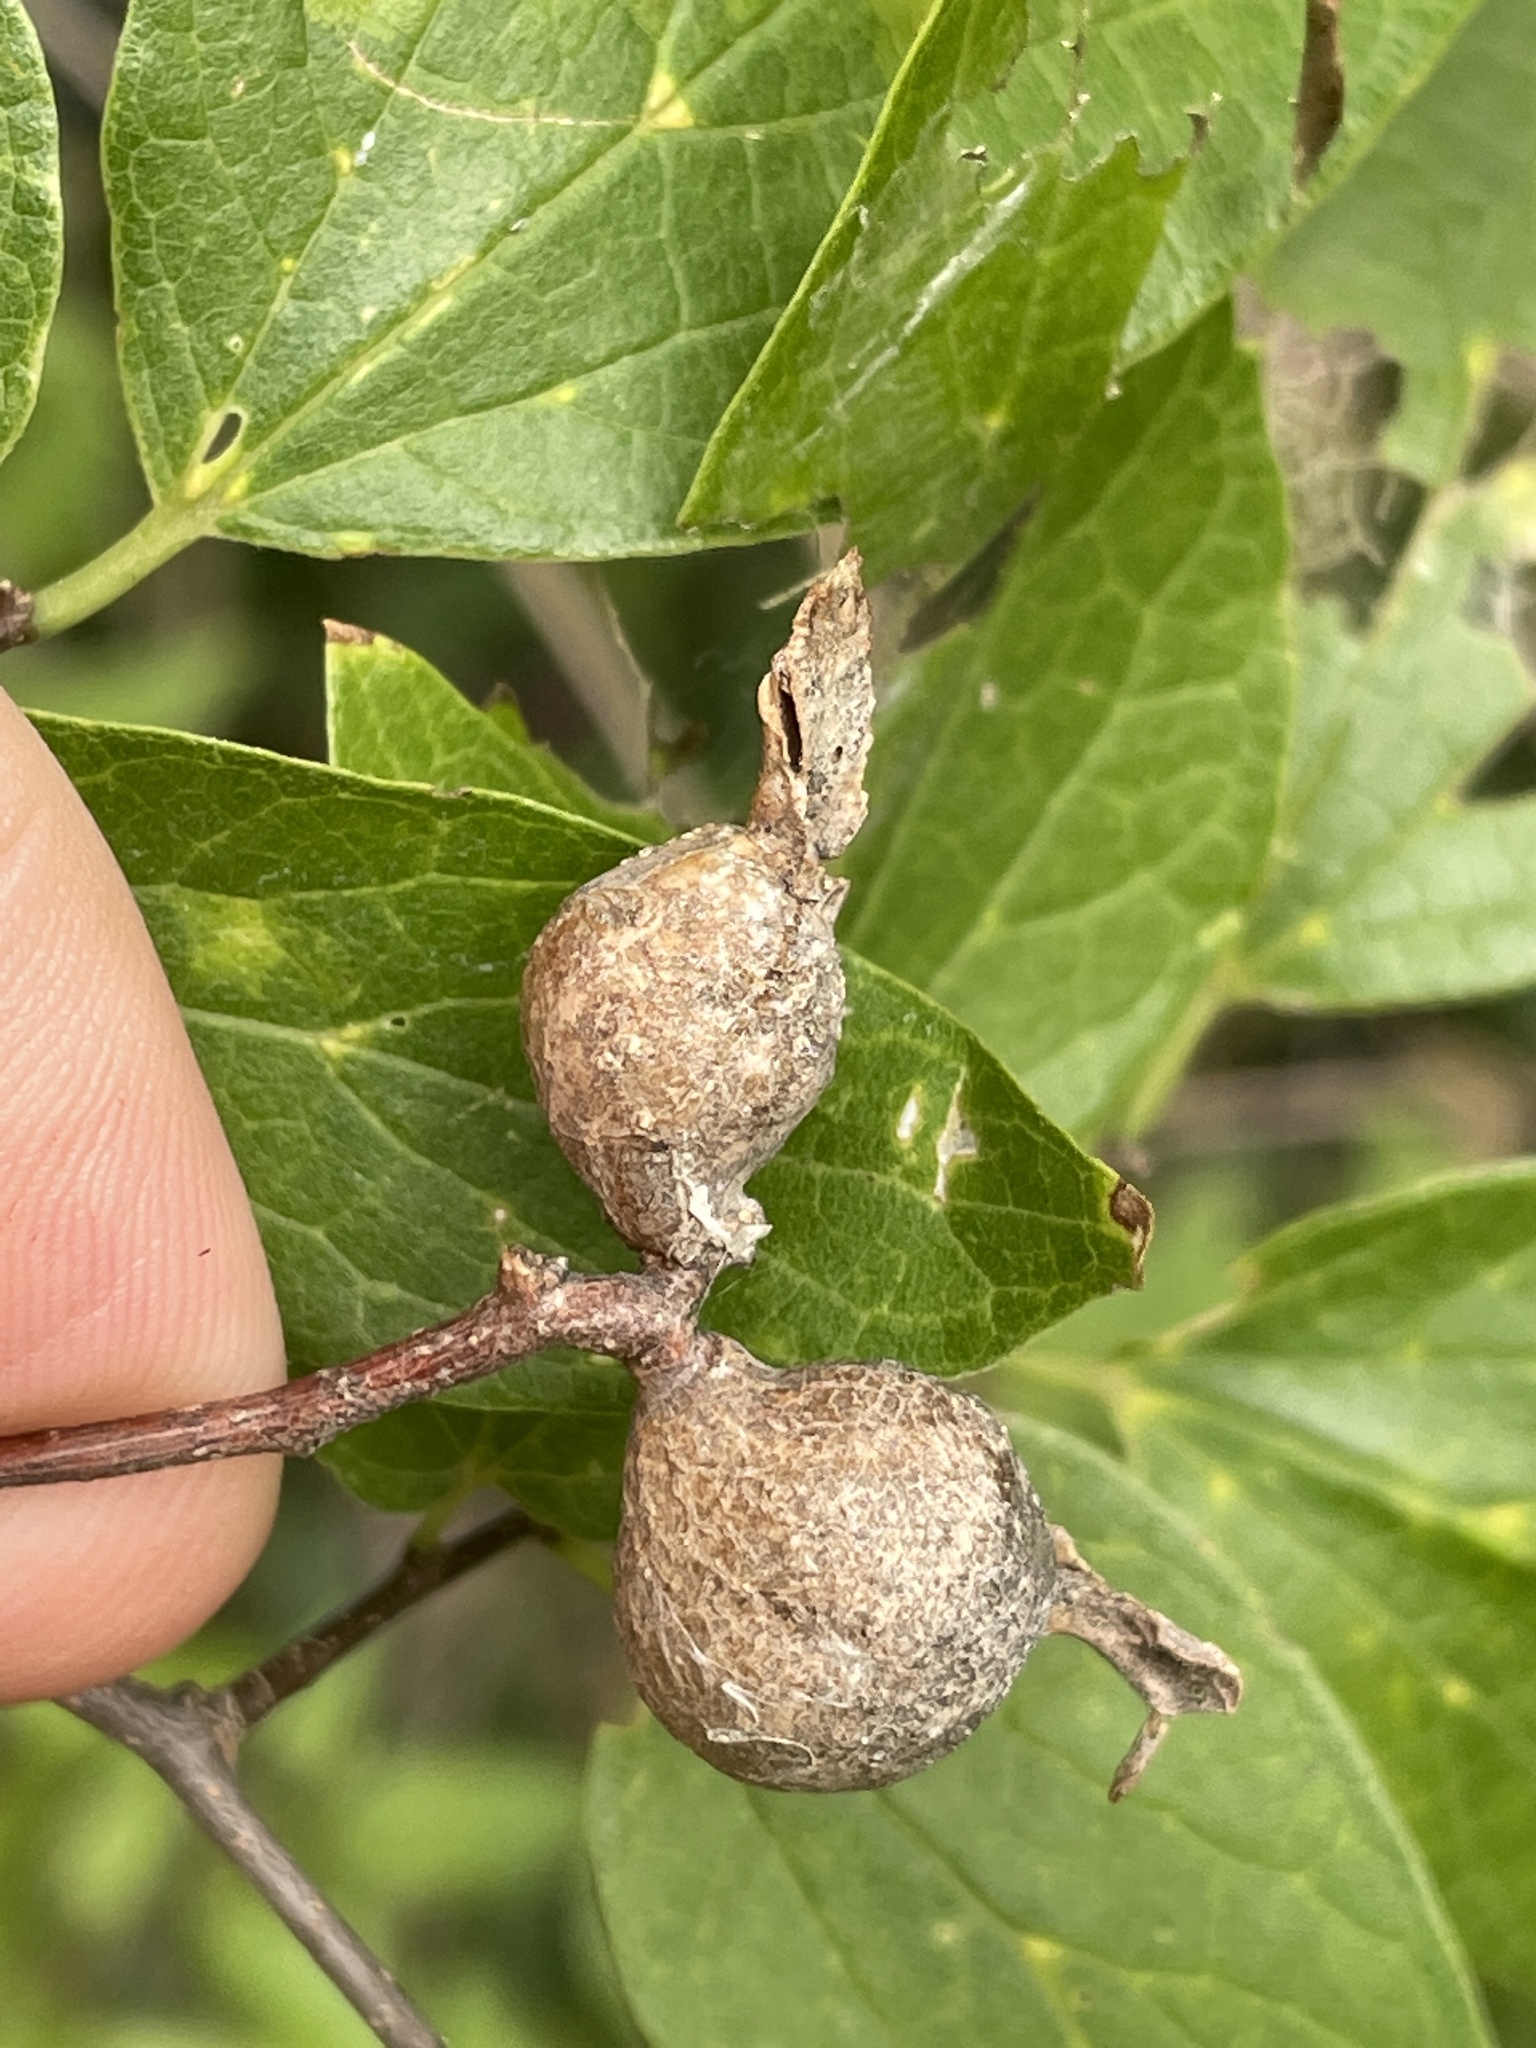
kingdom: Animalia
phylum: Arthropoda
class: Insecta
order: Hemiptera
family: Aphalaridae
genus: Pachypsylla
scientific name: Pachypsylla venusta
